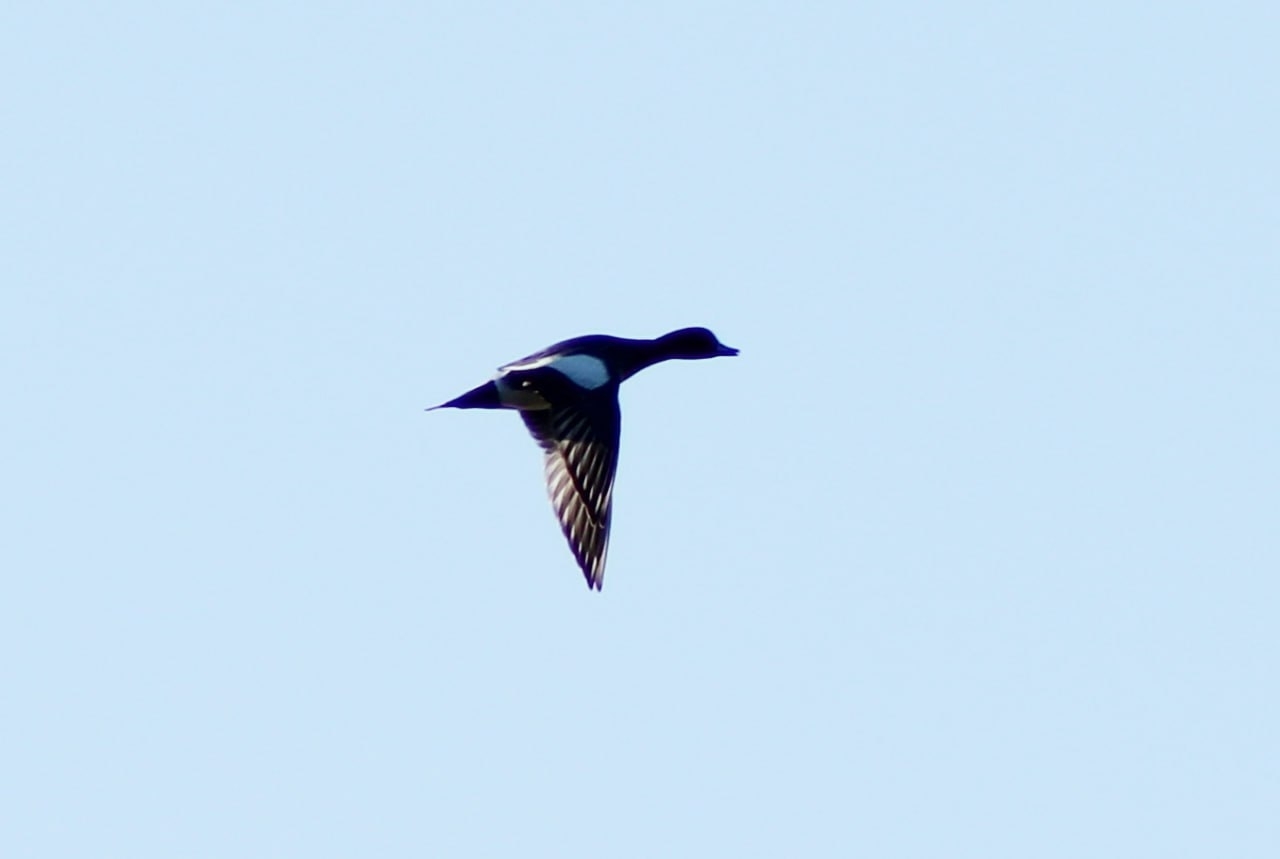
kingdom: Animalia
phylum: Chordata
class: Aves
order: Anseriformes
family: Anatidae
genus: Mareca
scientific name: Mareca penelope
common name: Eurasian wigeon
